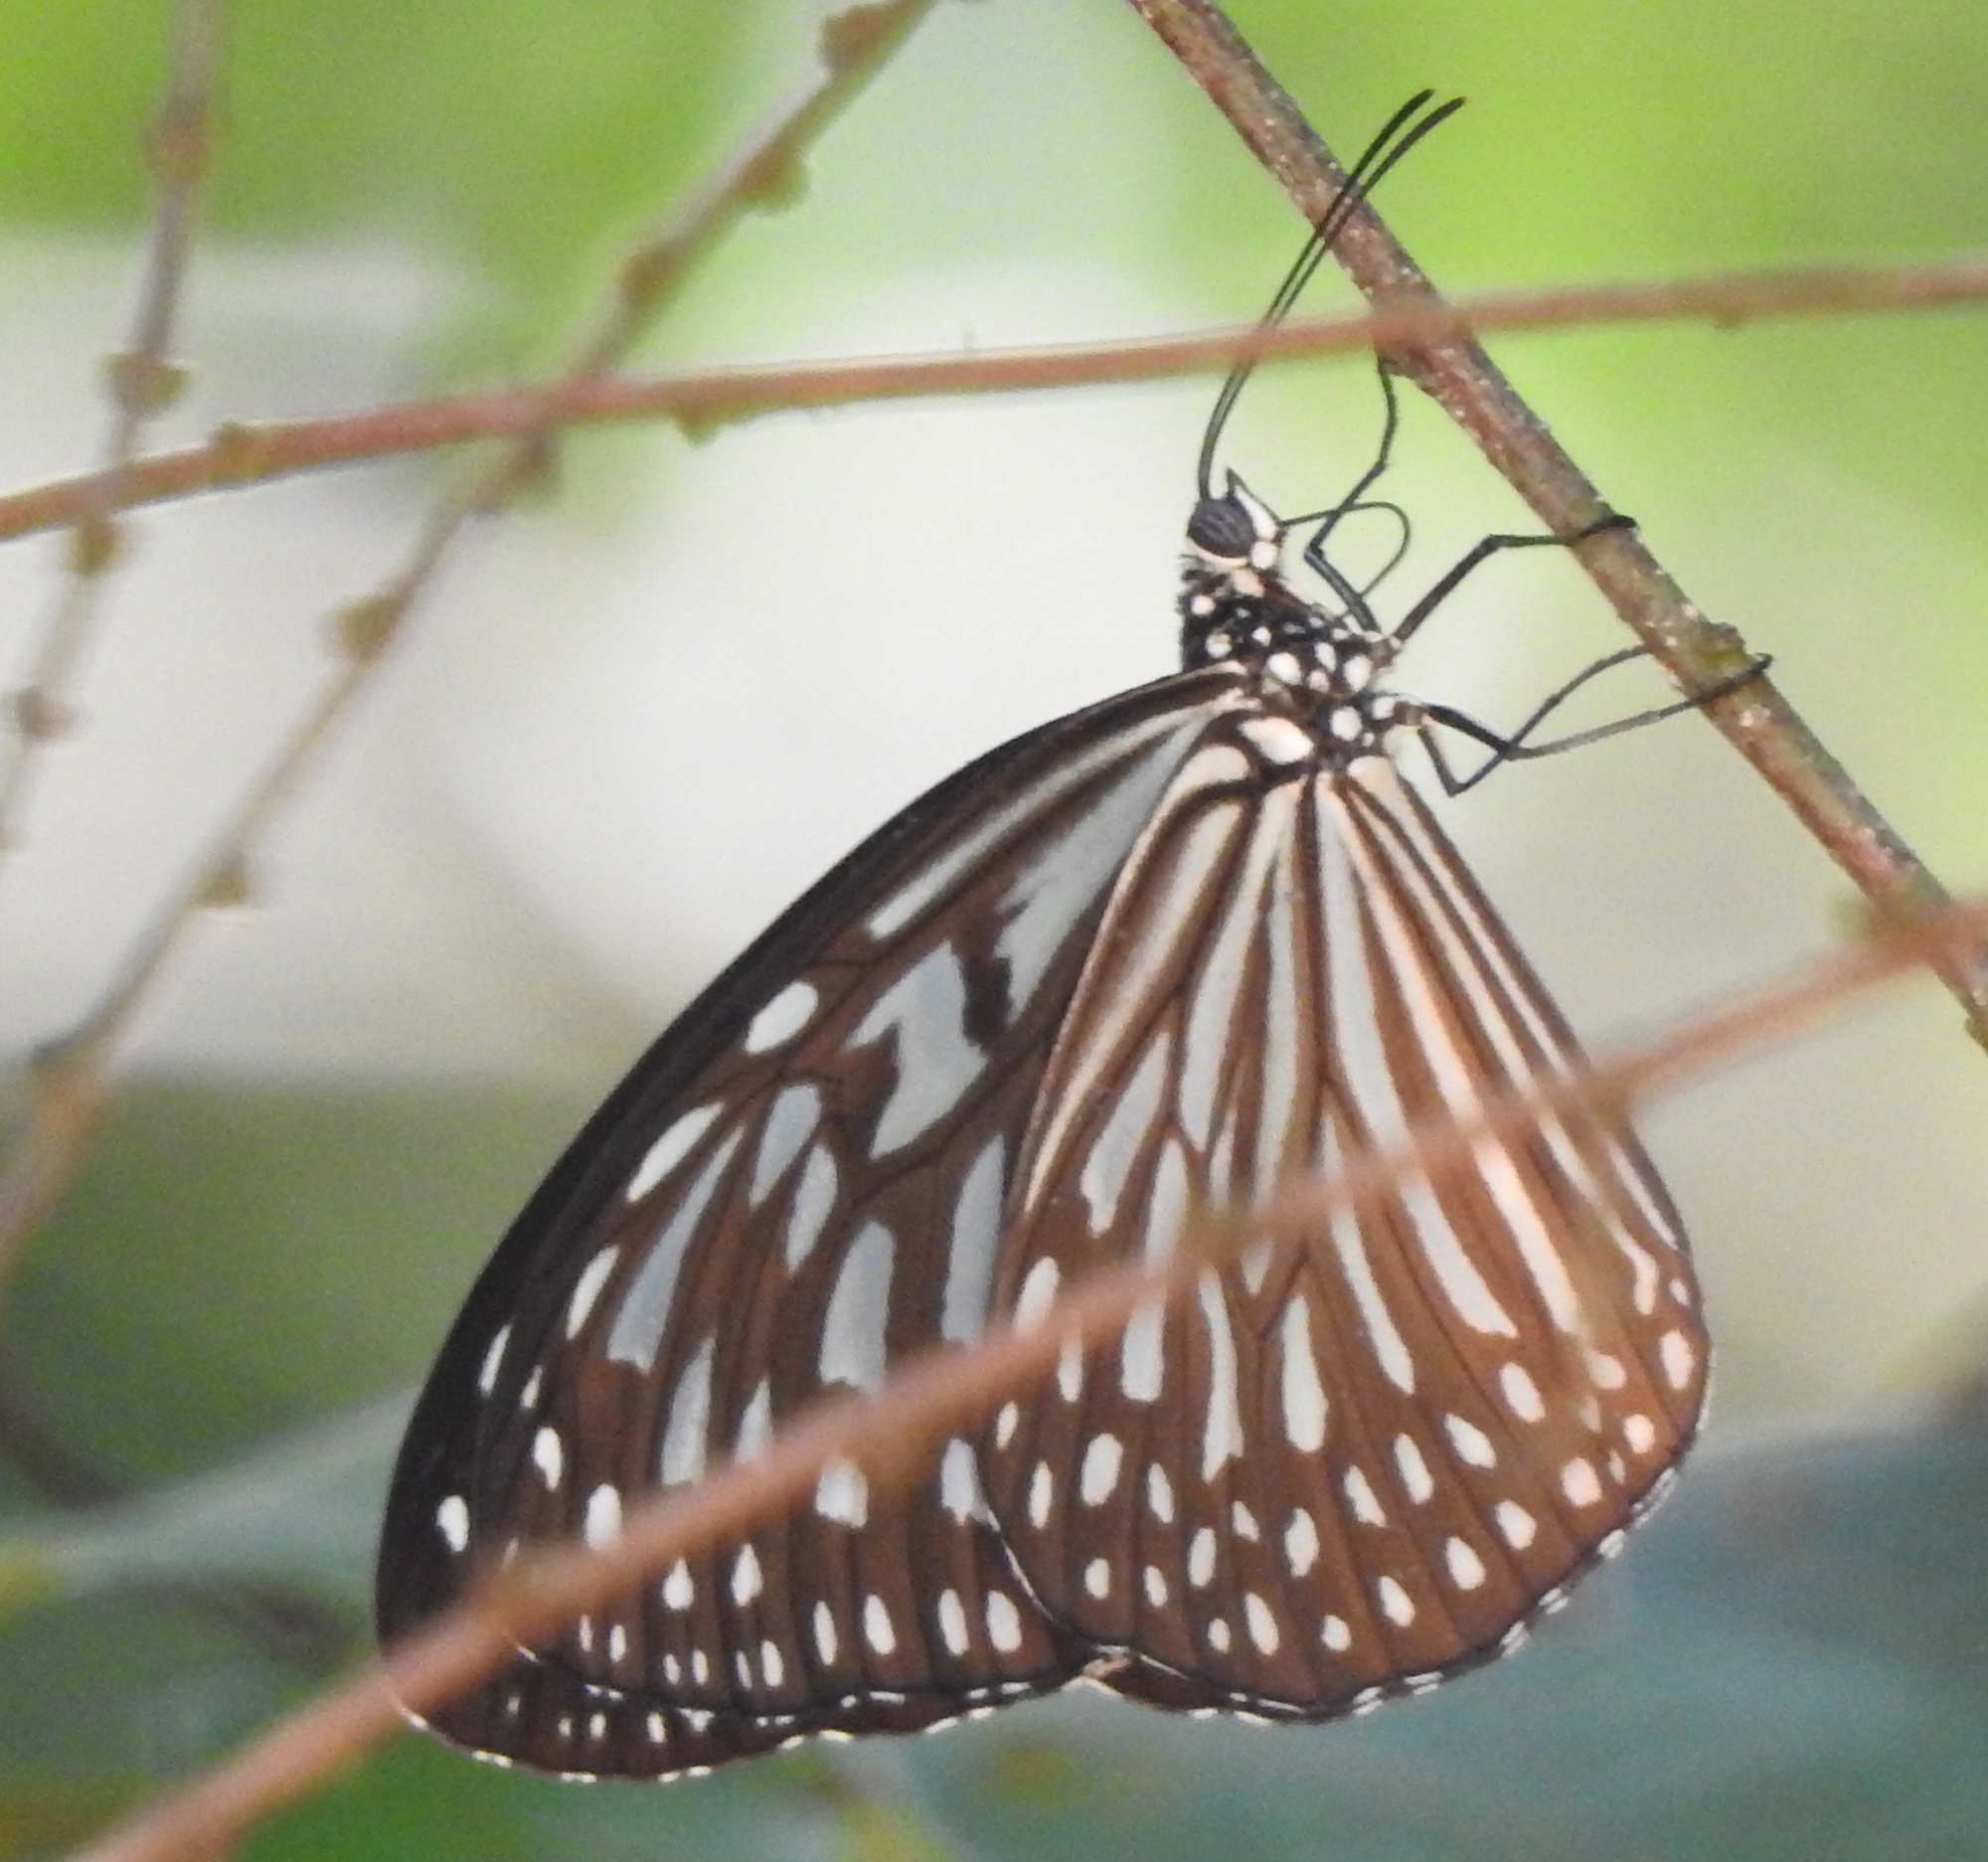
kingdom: Animalia
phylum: Arthropoda
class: Insecta
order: Lepidoptera
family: Nymphalidae
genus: Ideopsis
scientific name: Ideopsis vulgaris
